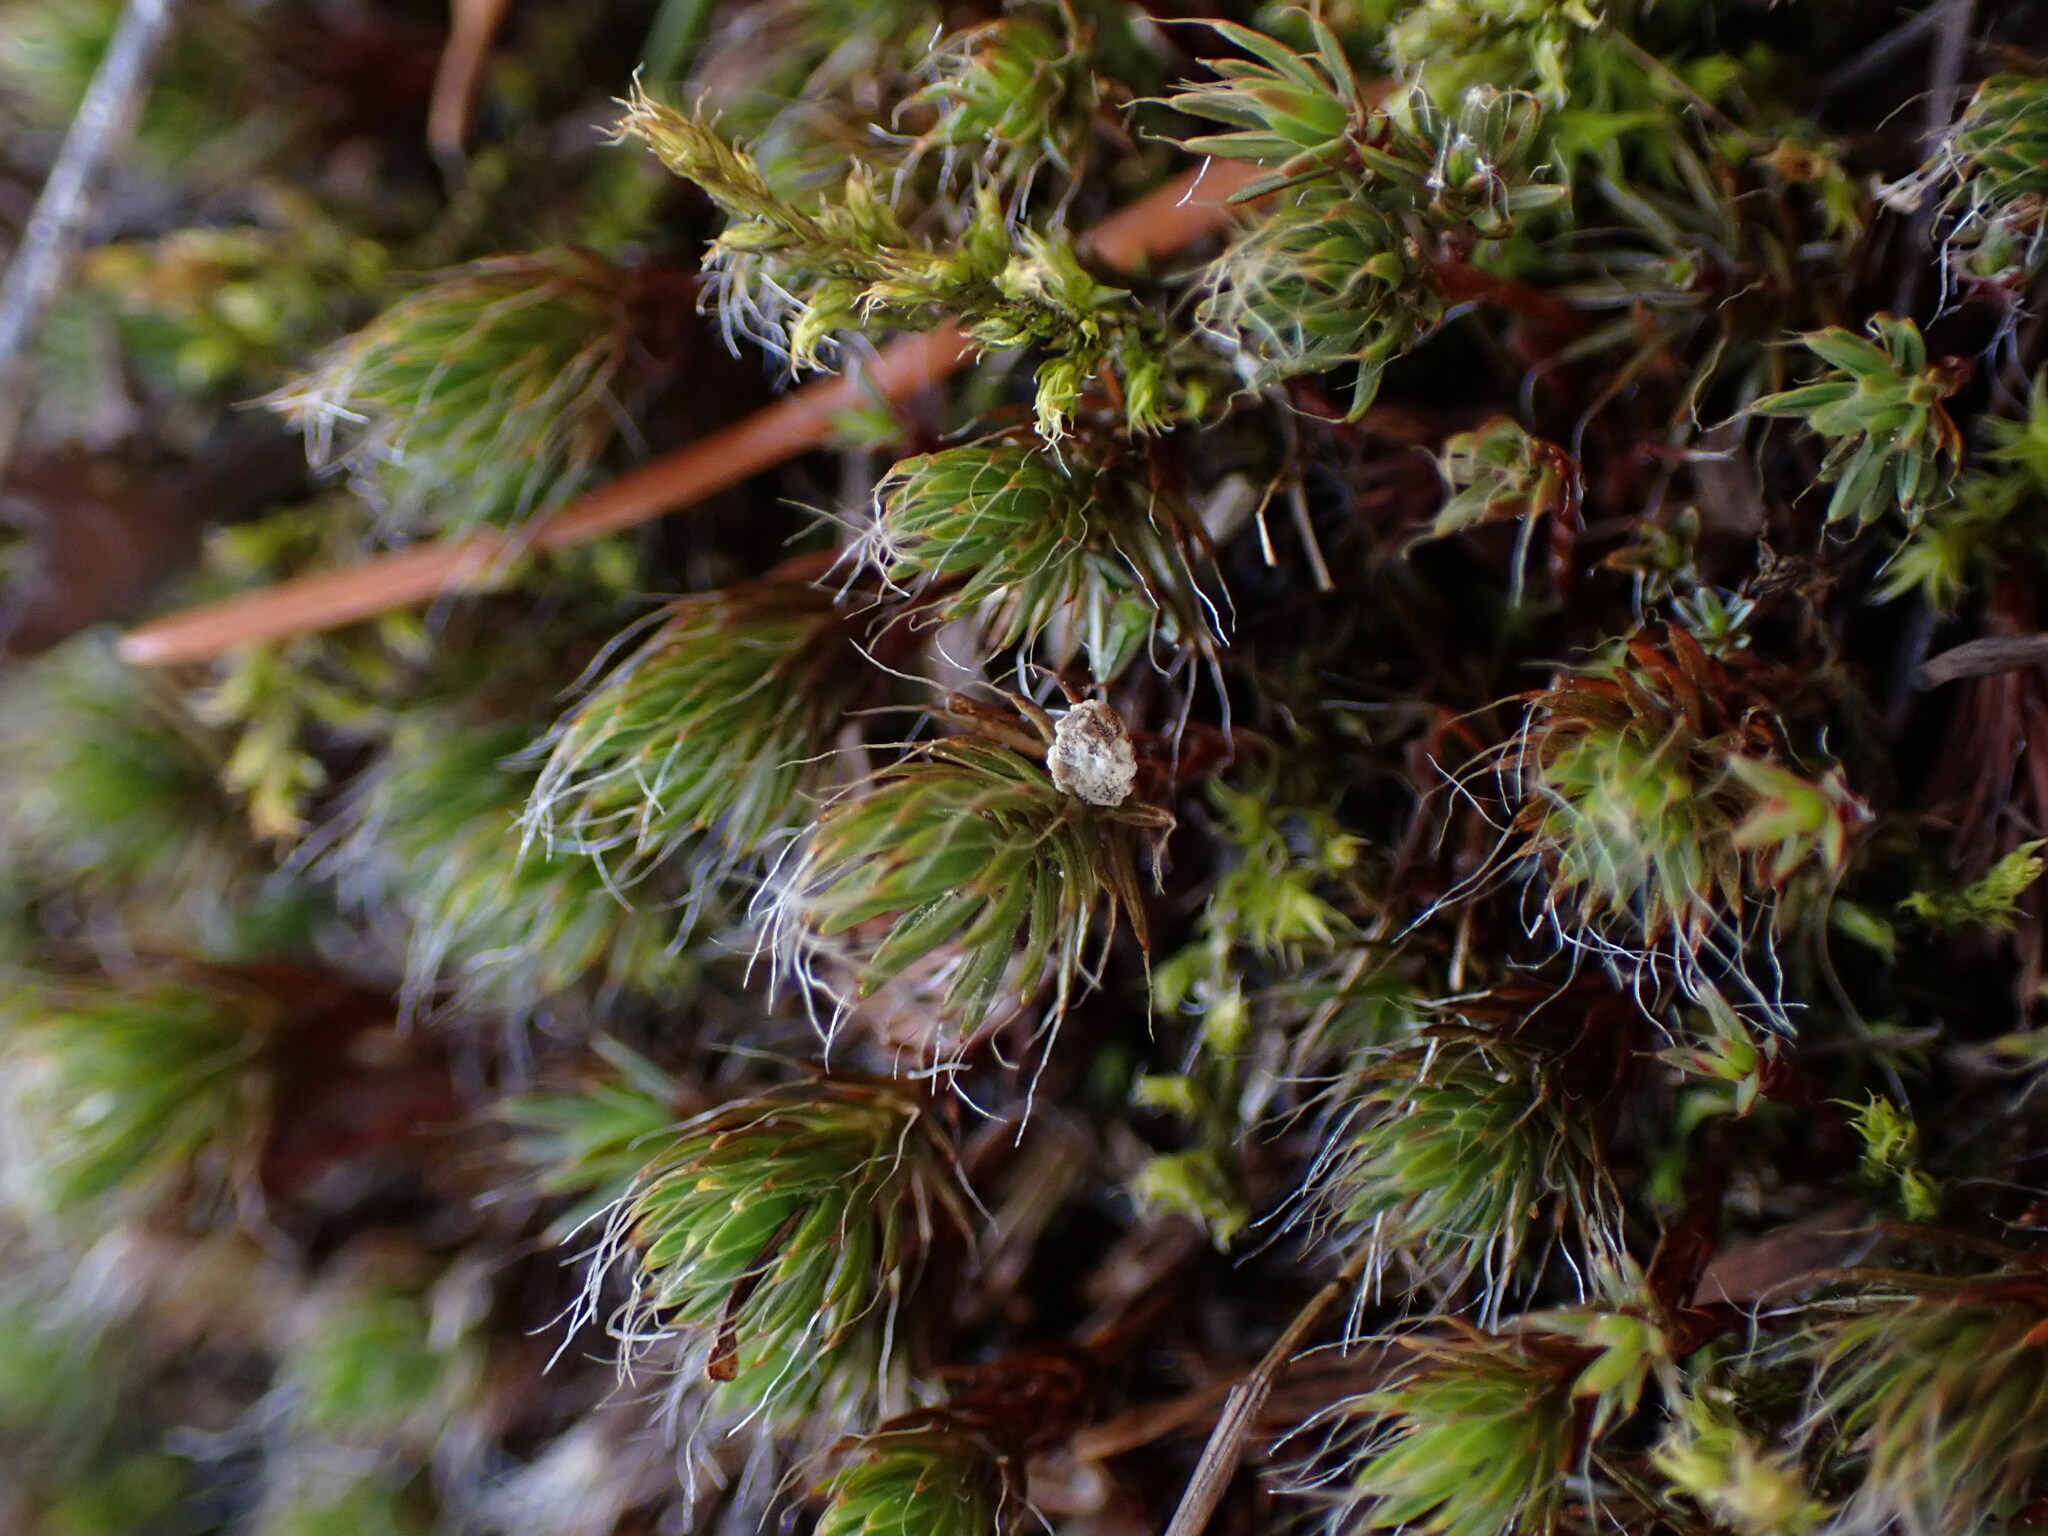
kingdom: Plantae
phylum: Bryophyta
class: Polytrichopsida
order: Polytrichales
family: Polytrichaceae
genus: Polytrichum
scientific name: Polytrichum piliferum
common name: Bristly haircap
